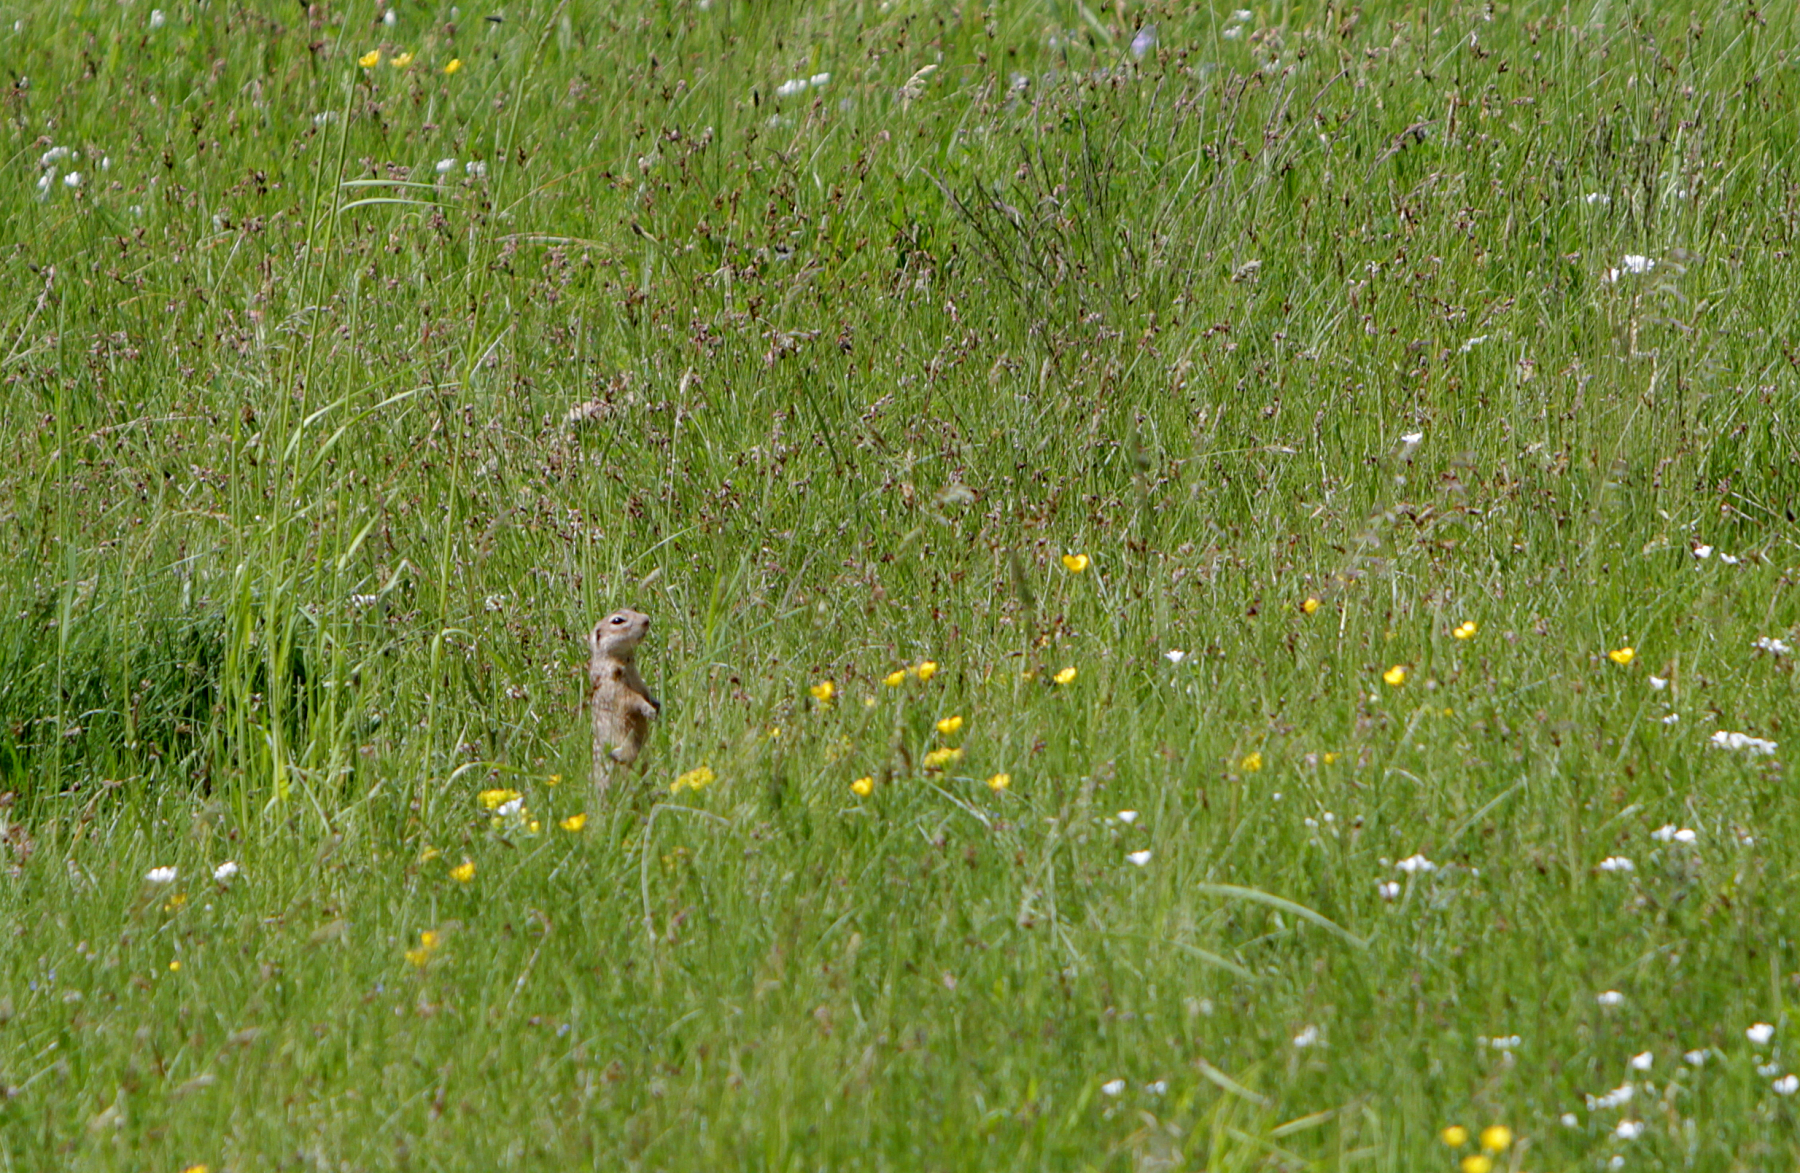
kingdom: Animalia
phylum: Chordata
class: Mammalia
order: Rodentia
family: Sciuridae
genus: Spermophilus
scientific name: Spermophilus suslicus
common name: Speckled ground squirrel
